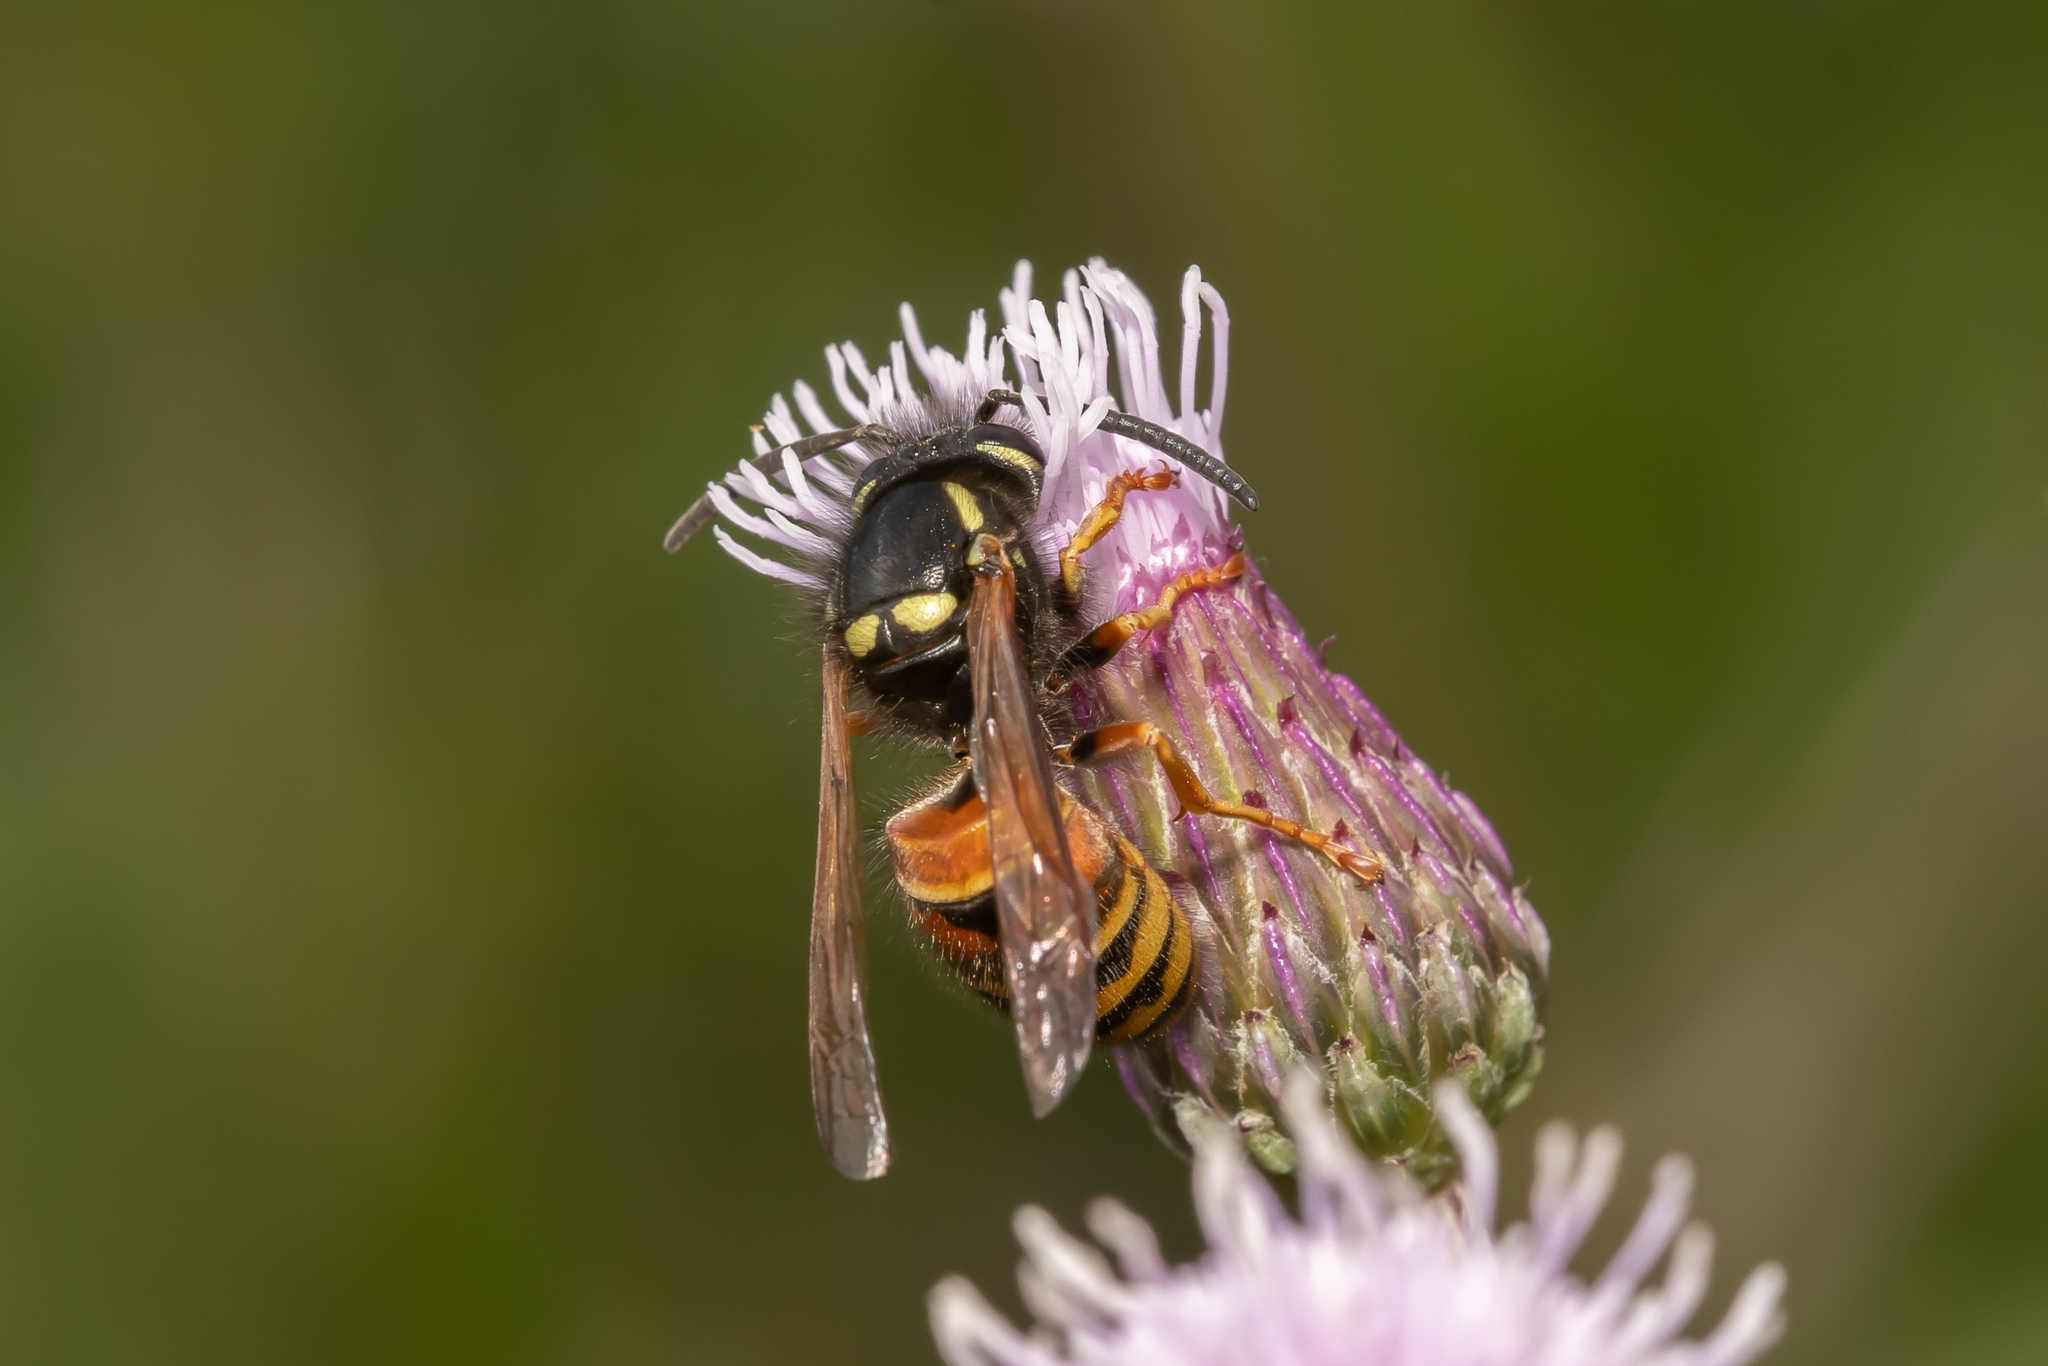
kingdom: Animalia
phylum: Arthropoda
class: Insecta
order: Hymenoptera
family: Vespidae
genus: Vespula
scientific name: Vespula rufa
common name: Red wasp
